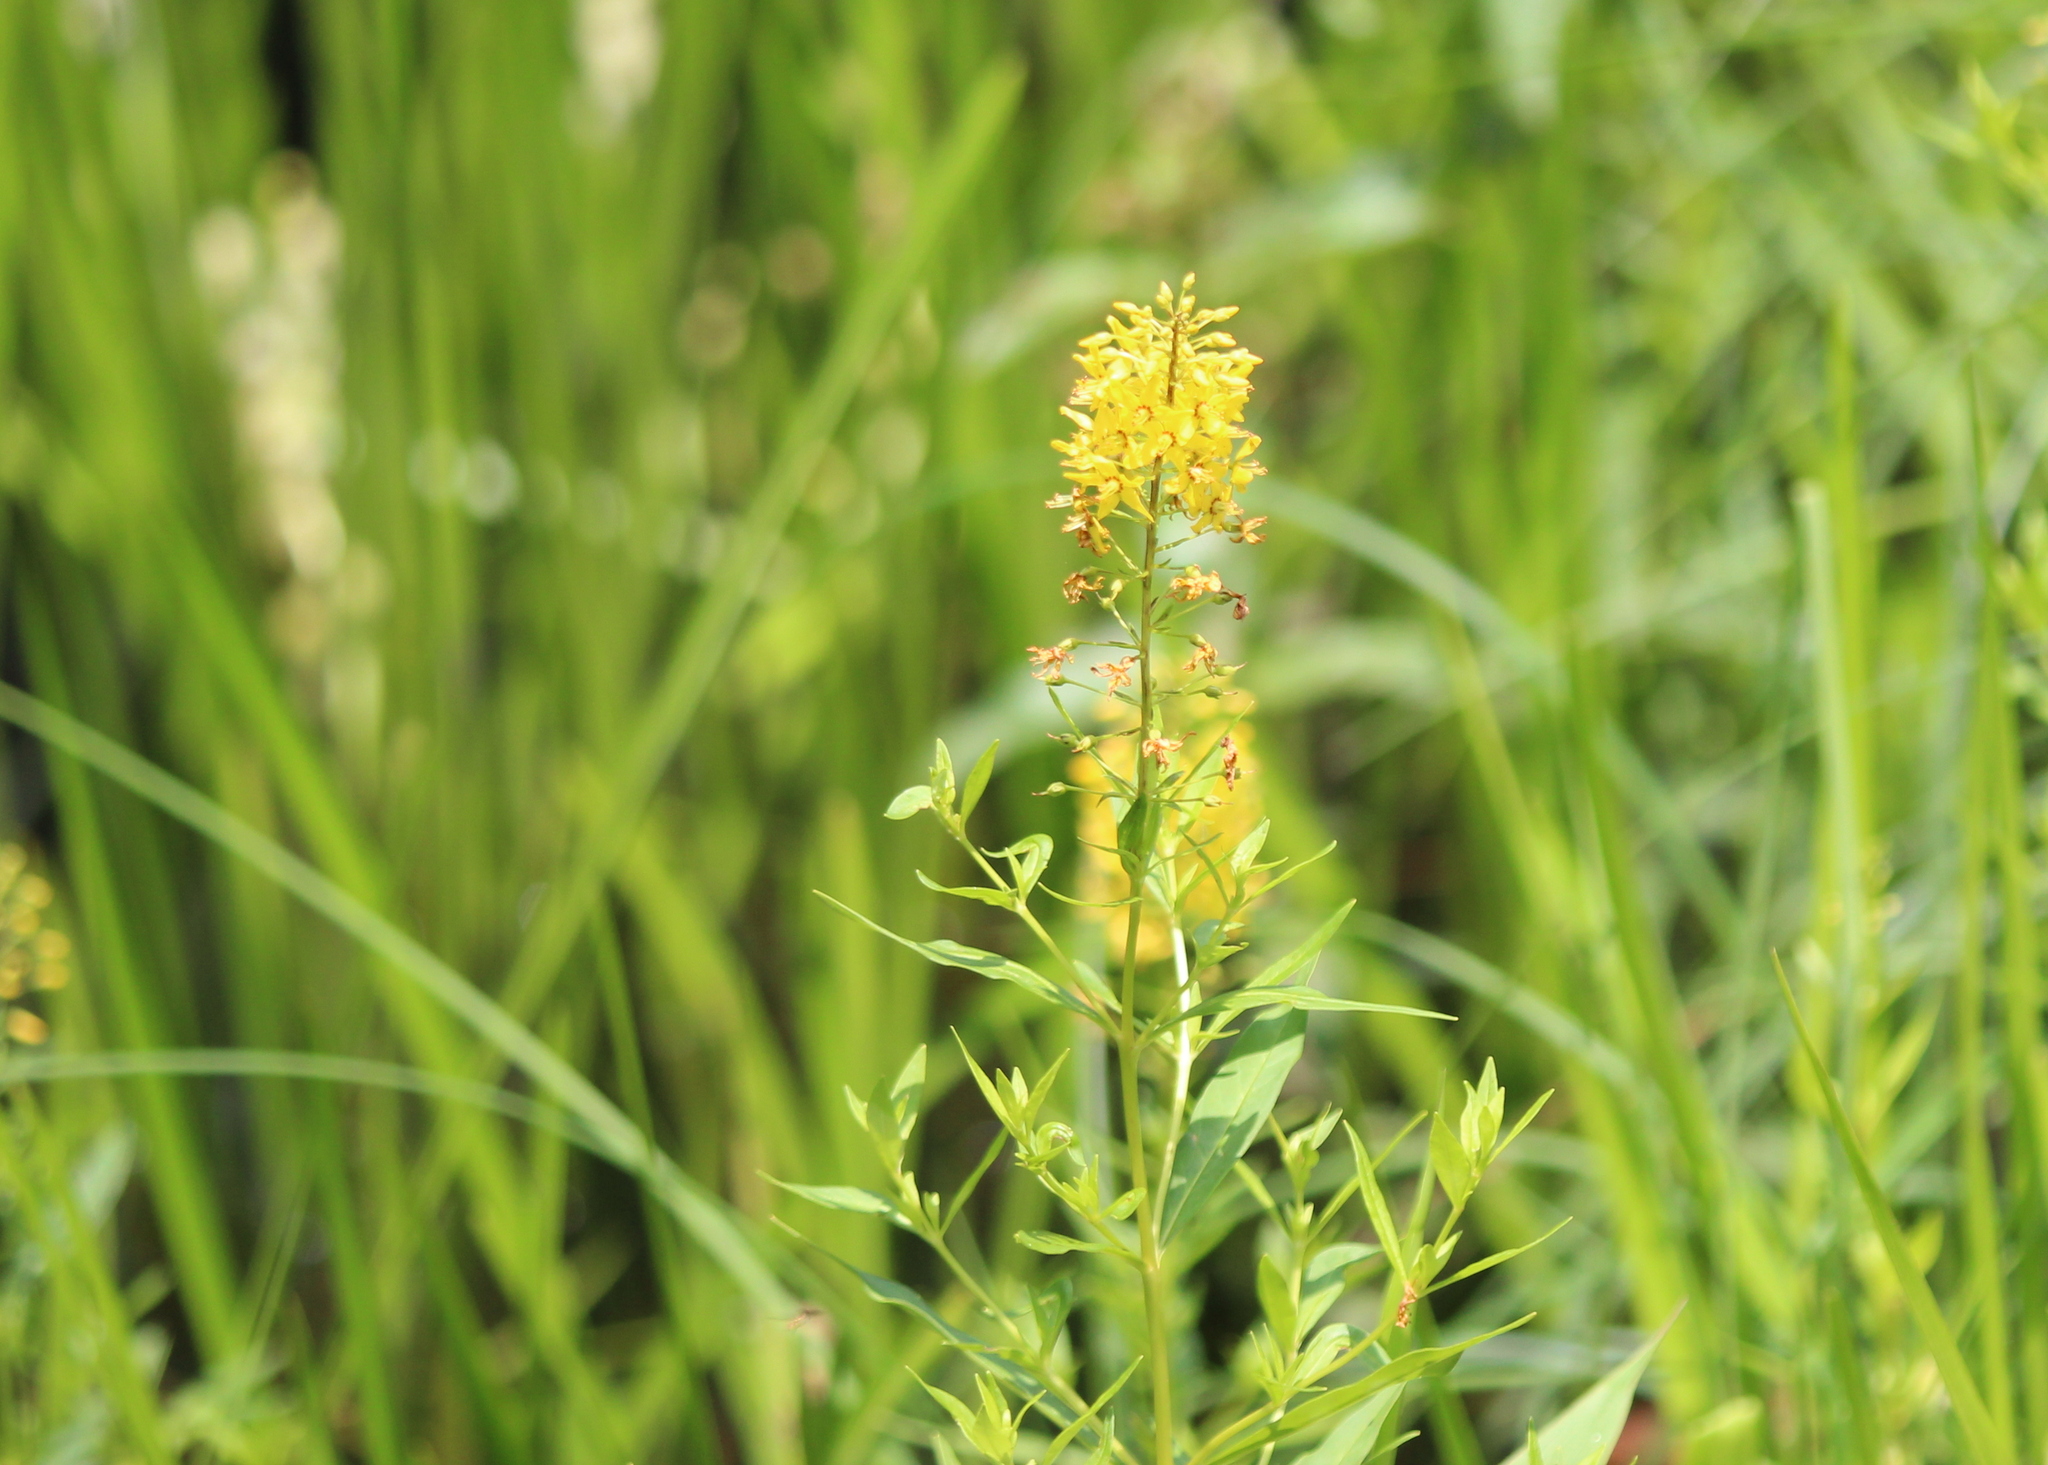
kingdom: Plantae
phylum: Tracheophyta
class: Magnoliopsida
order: Ericales
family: Primulaceae
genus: Lysimachia
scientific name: Lysimachia terrestris
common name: Lake loosestrife
